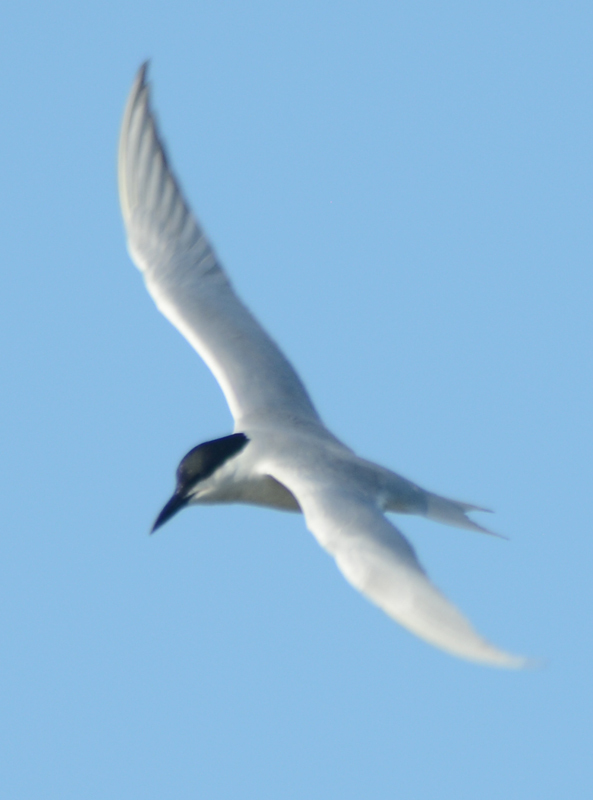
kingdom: Animalia
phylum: Chordata
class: Aves
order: Charadriiformes
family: Laridae
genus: Gelochelidon
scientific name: Gelochelidon nilotica
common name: Gull-billed tern
